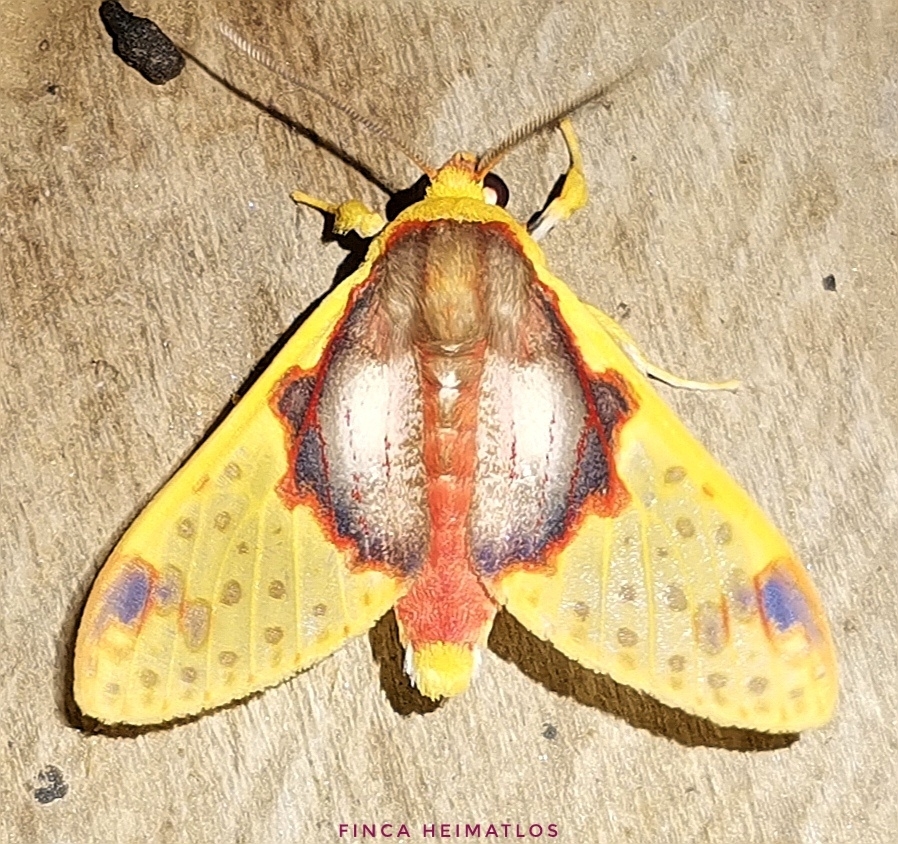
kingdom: Animalia
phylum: Arthropoda
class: Insecta
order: Lepidoptera
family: Erebidae
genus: Amaxia
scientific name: Amaxia flavicollis
